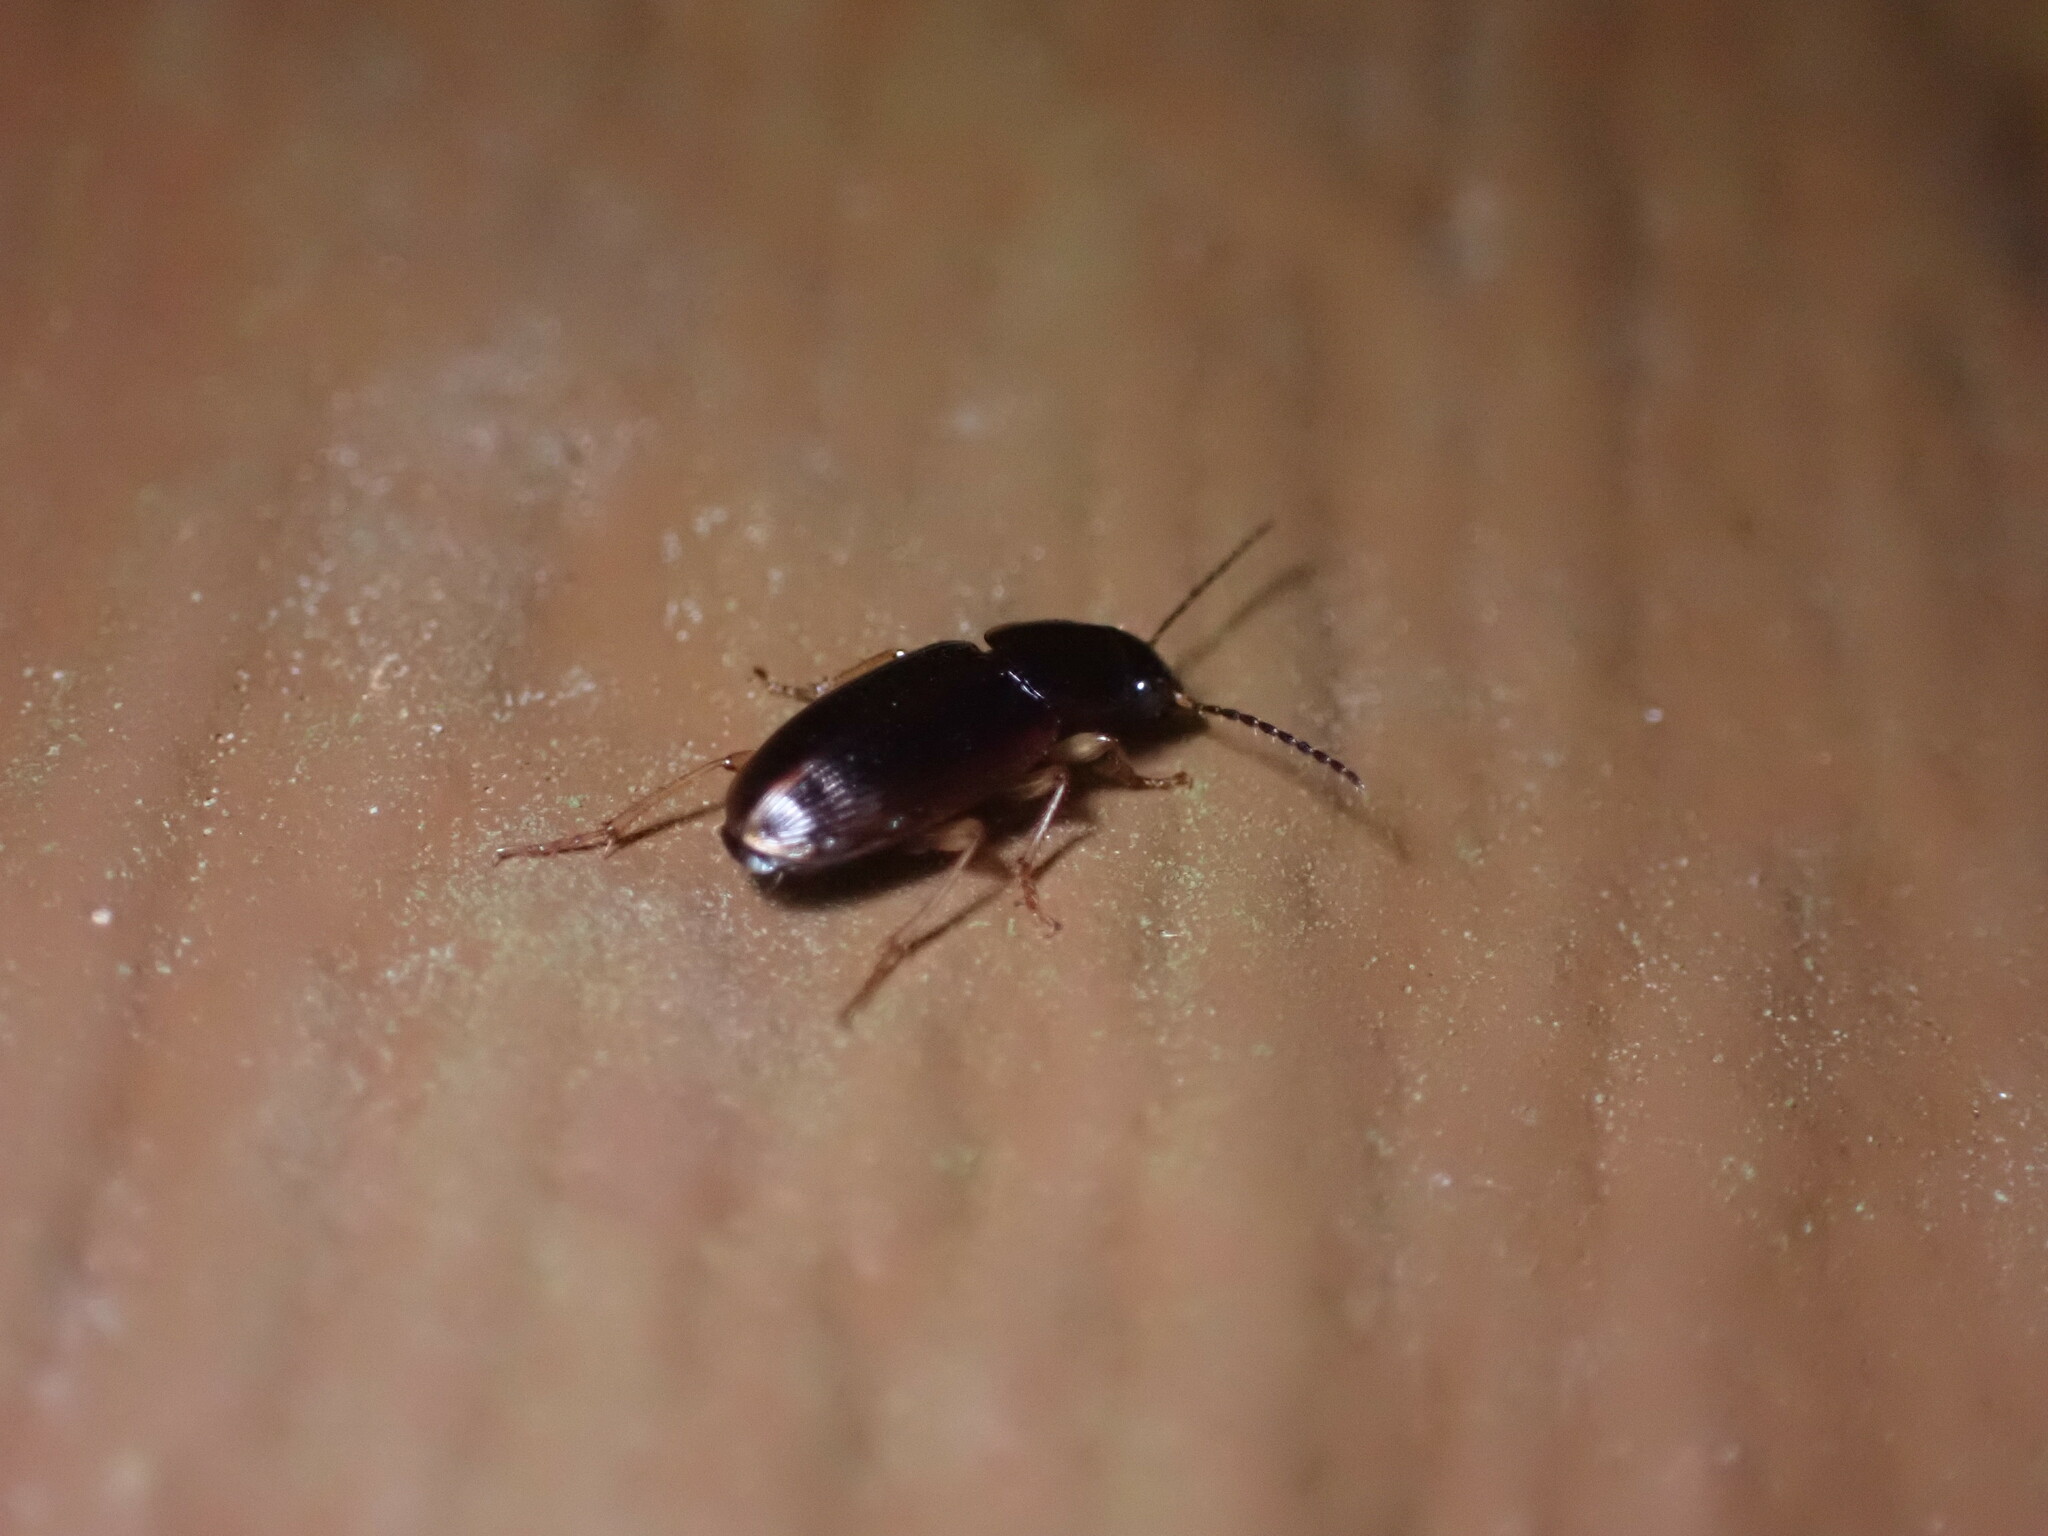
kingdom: Animalia
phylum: Arthropoda
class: Insecta
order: Coleoptera
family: Carabidae
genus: Stenolophus
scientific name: Stenolophus ochropezus
